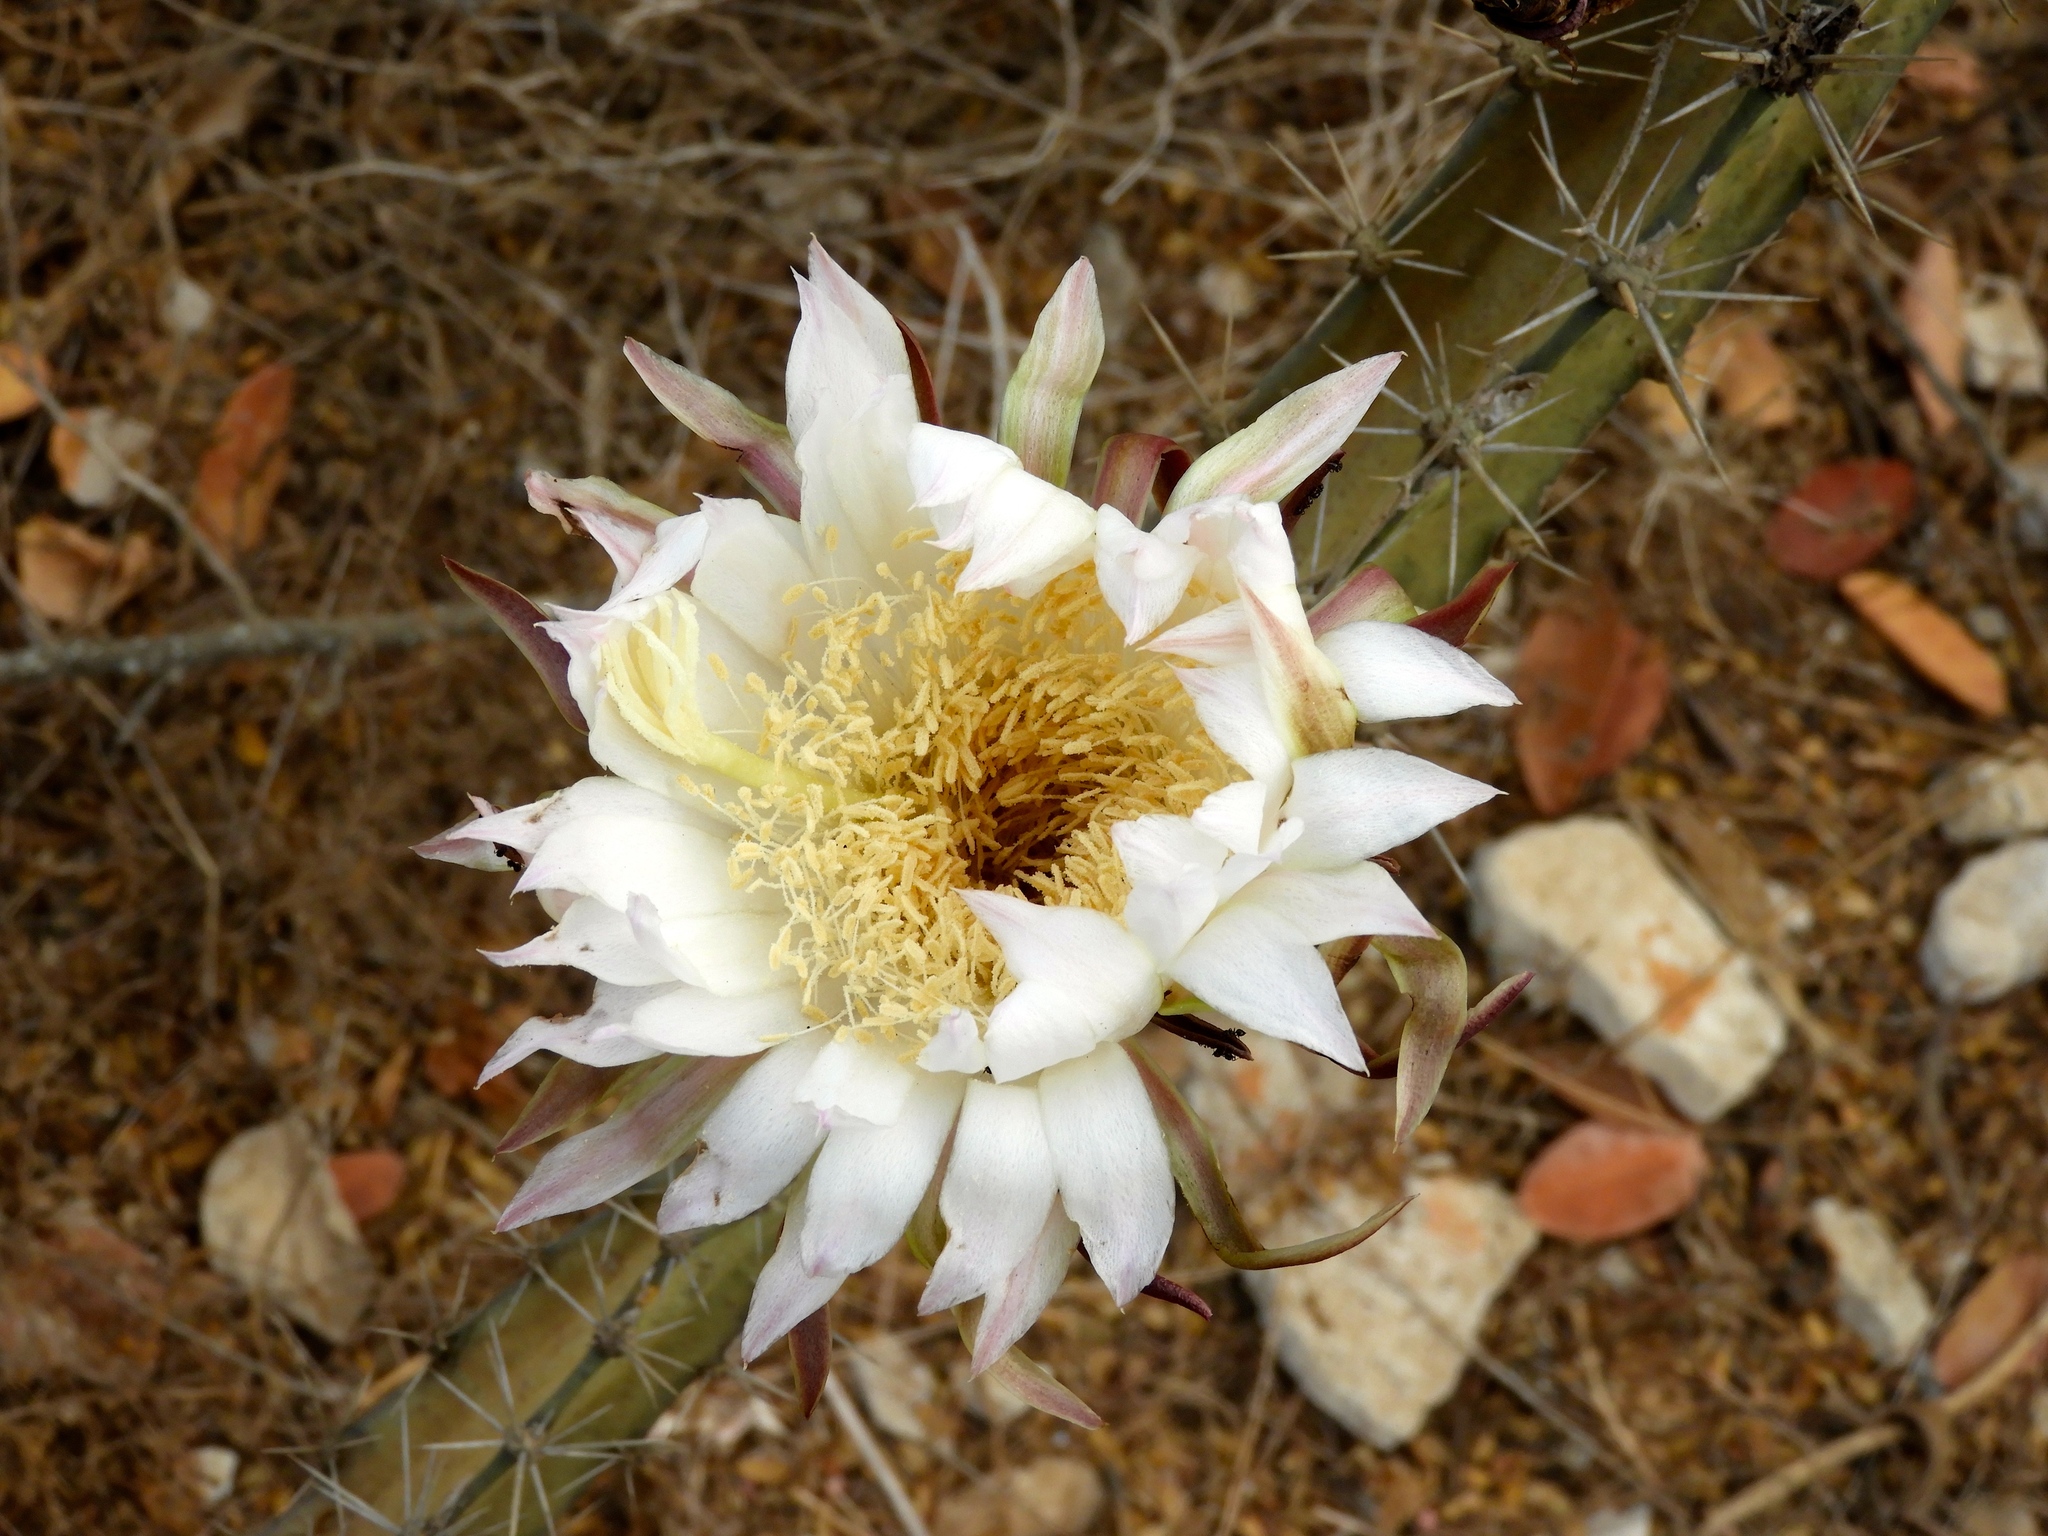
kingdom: Plantae
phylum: Tracheophyta
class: Magnoliopsida
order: Caryophyllales
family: Cactaceae
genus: Acanthocereus
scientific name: Acanthocereus tetragonus
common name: Triangle cactus
